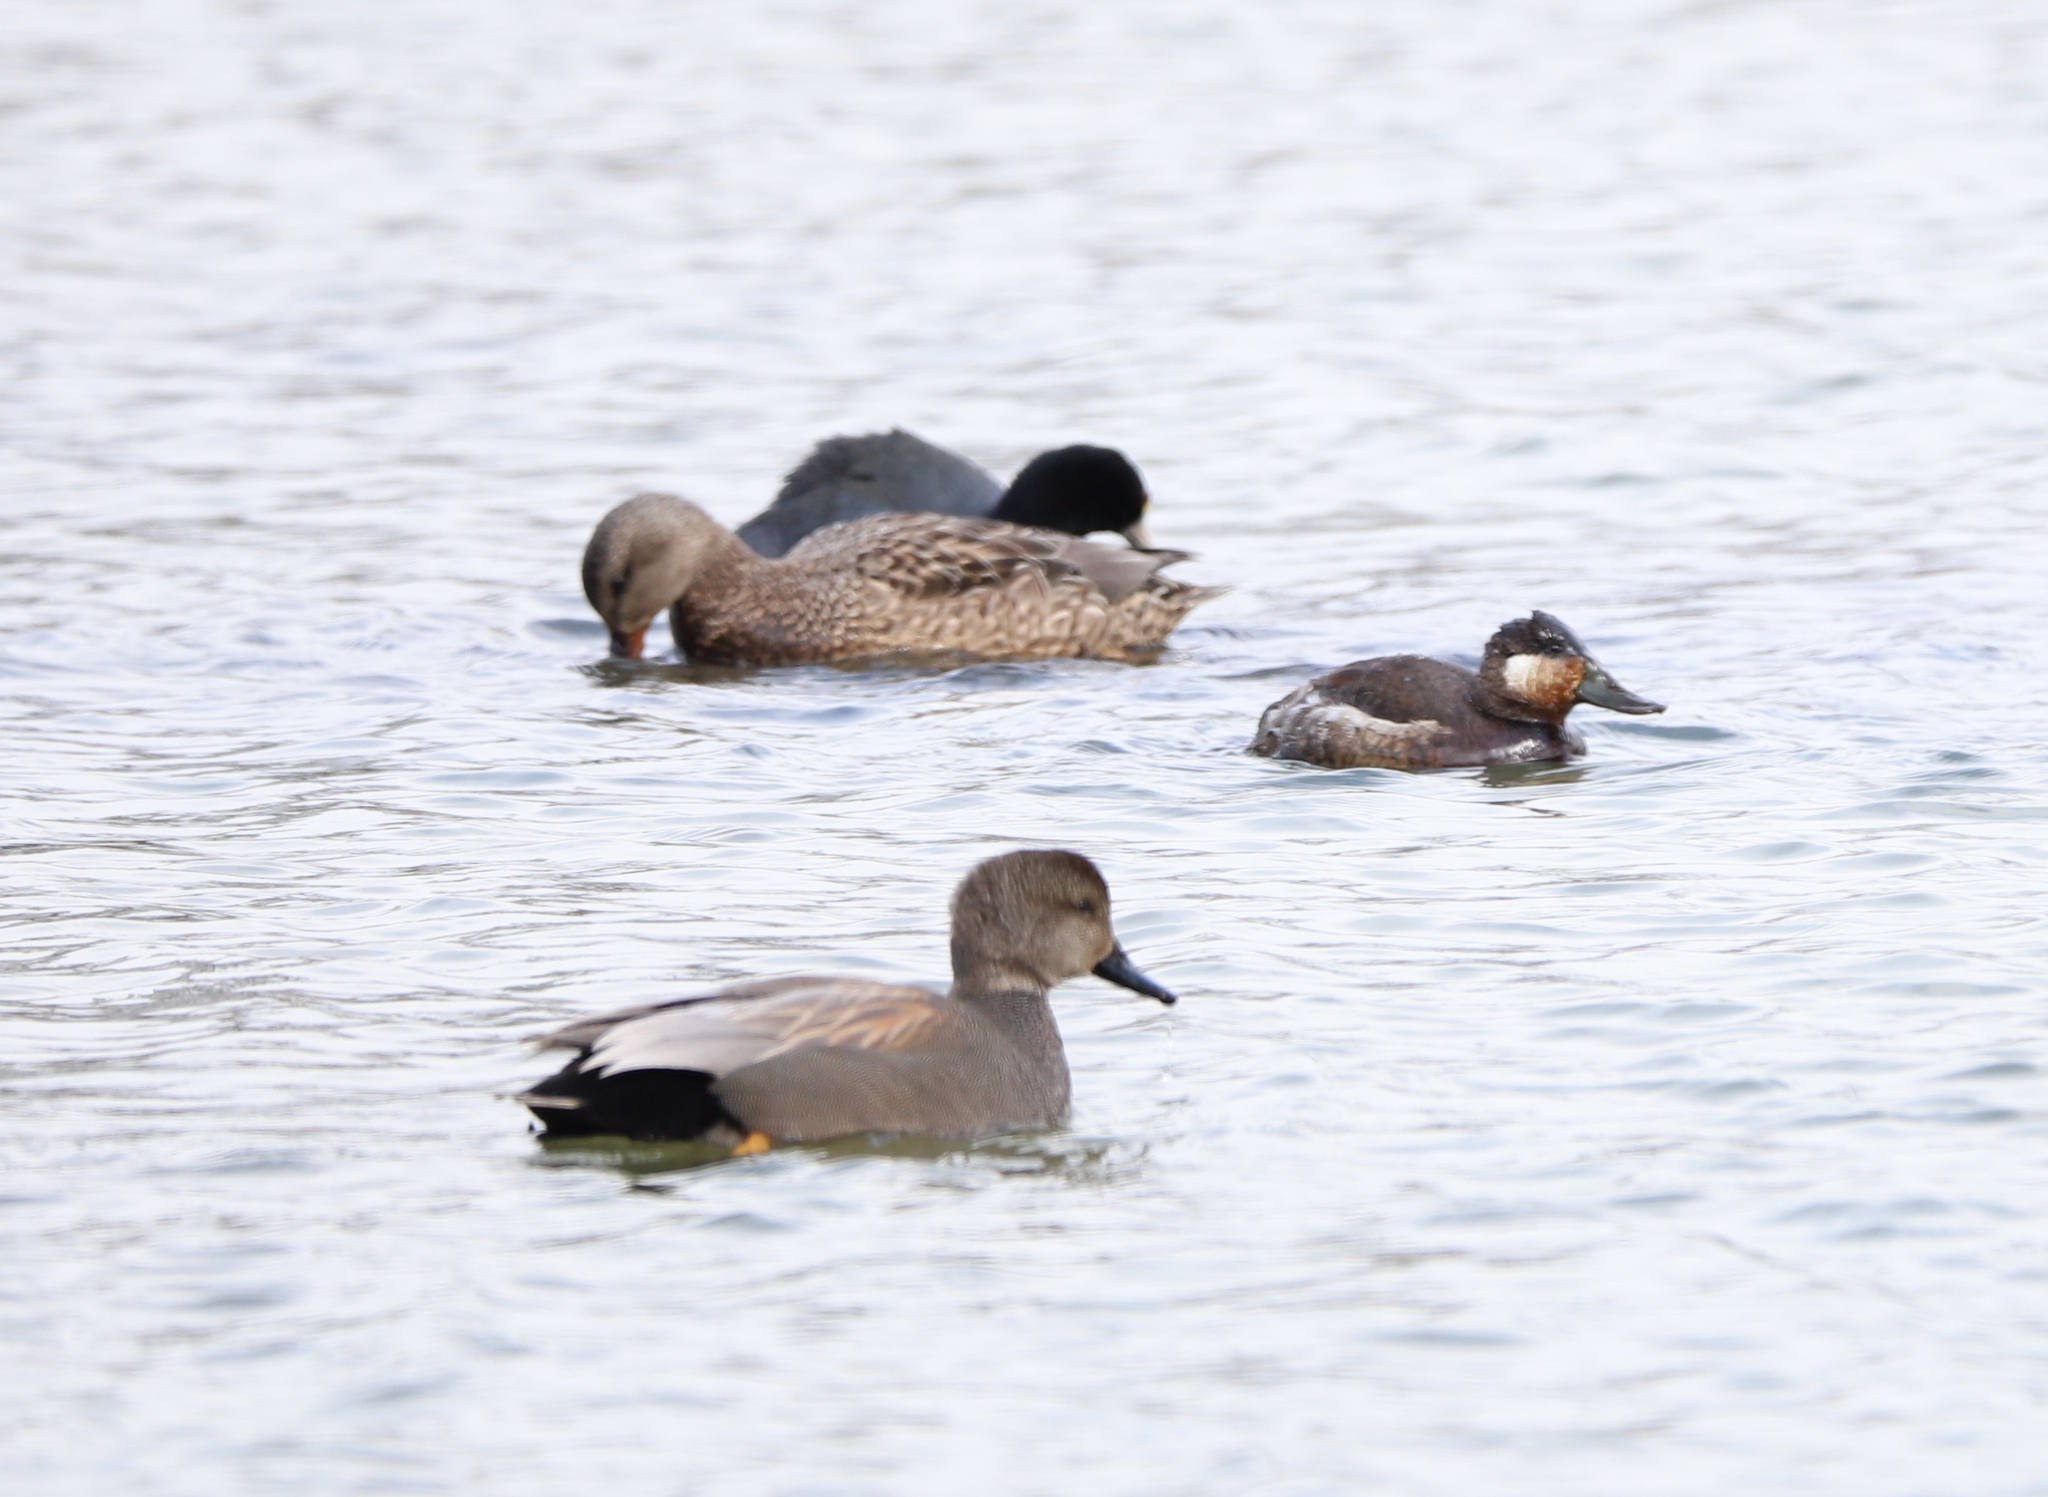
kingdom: Animalia
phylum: Chordata
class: Aves
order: Anseriformes
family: Anatidae
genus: Mareca
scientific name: Mareca strepera
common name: Gadwall
